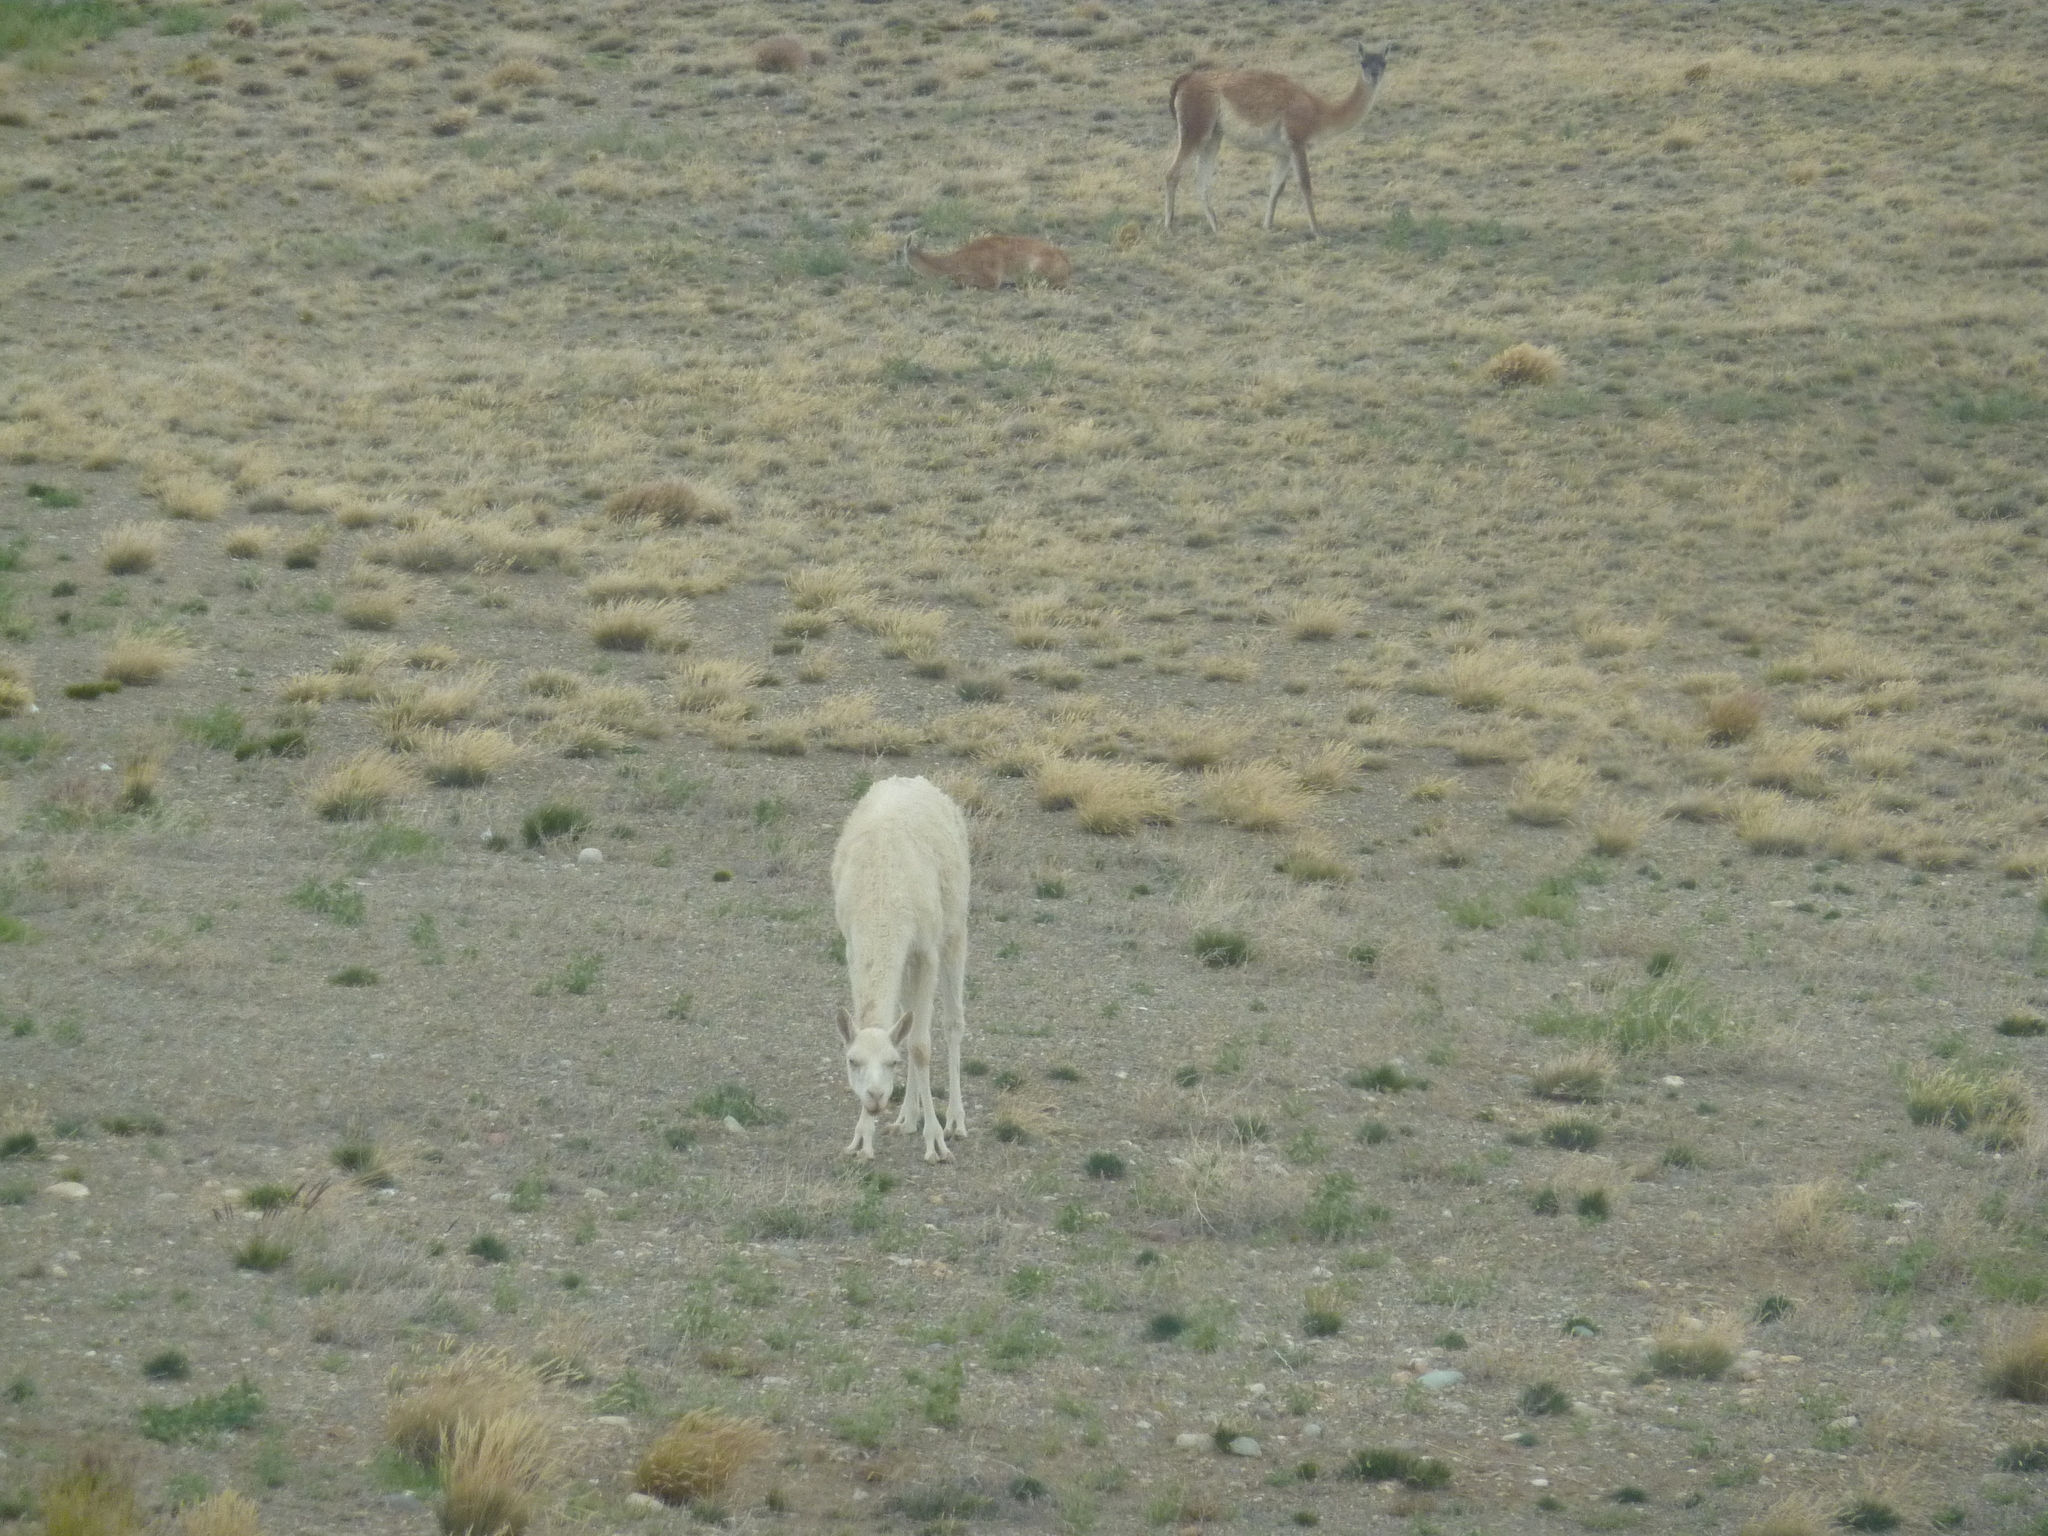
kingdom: Animalia
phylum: Chordata
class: Mammalia
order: Artiodactyla
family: Camelidae
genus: Lama
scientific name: Lama glama
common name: Llama
